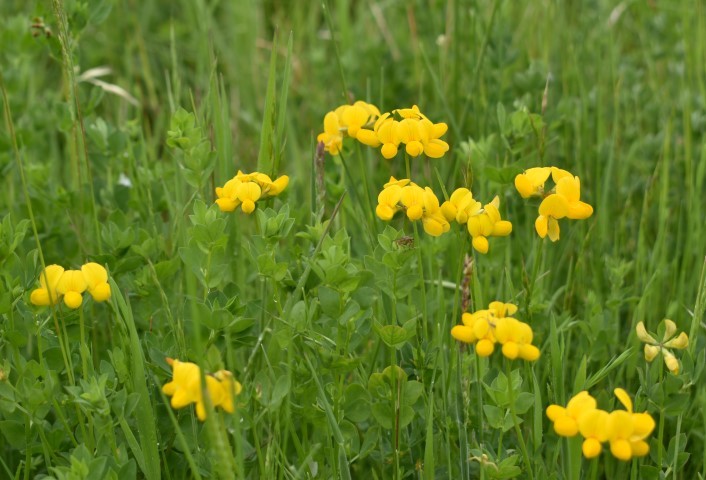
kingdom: Plantae
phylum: Tracheophyta
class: Magnoliopsida
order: Fabales
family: Fabaceae
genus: Lotus
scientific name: Lotus corniculatus
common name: Common bird's-foot-trefoil
